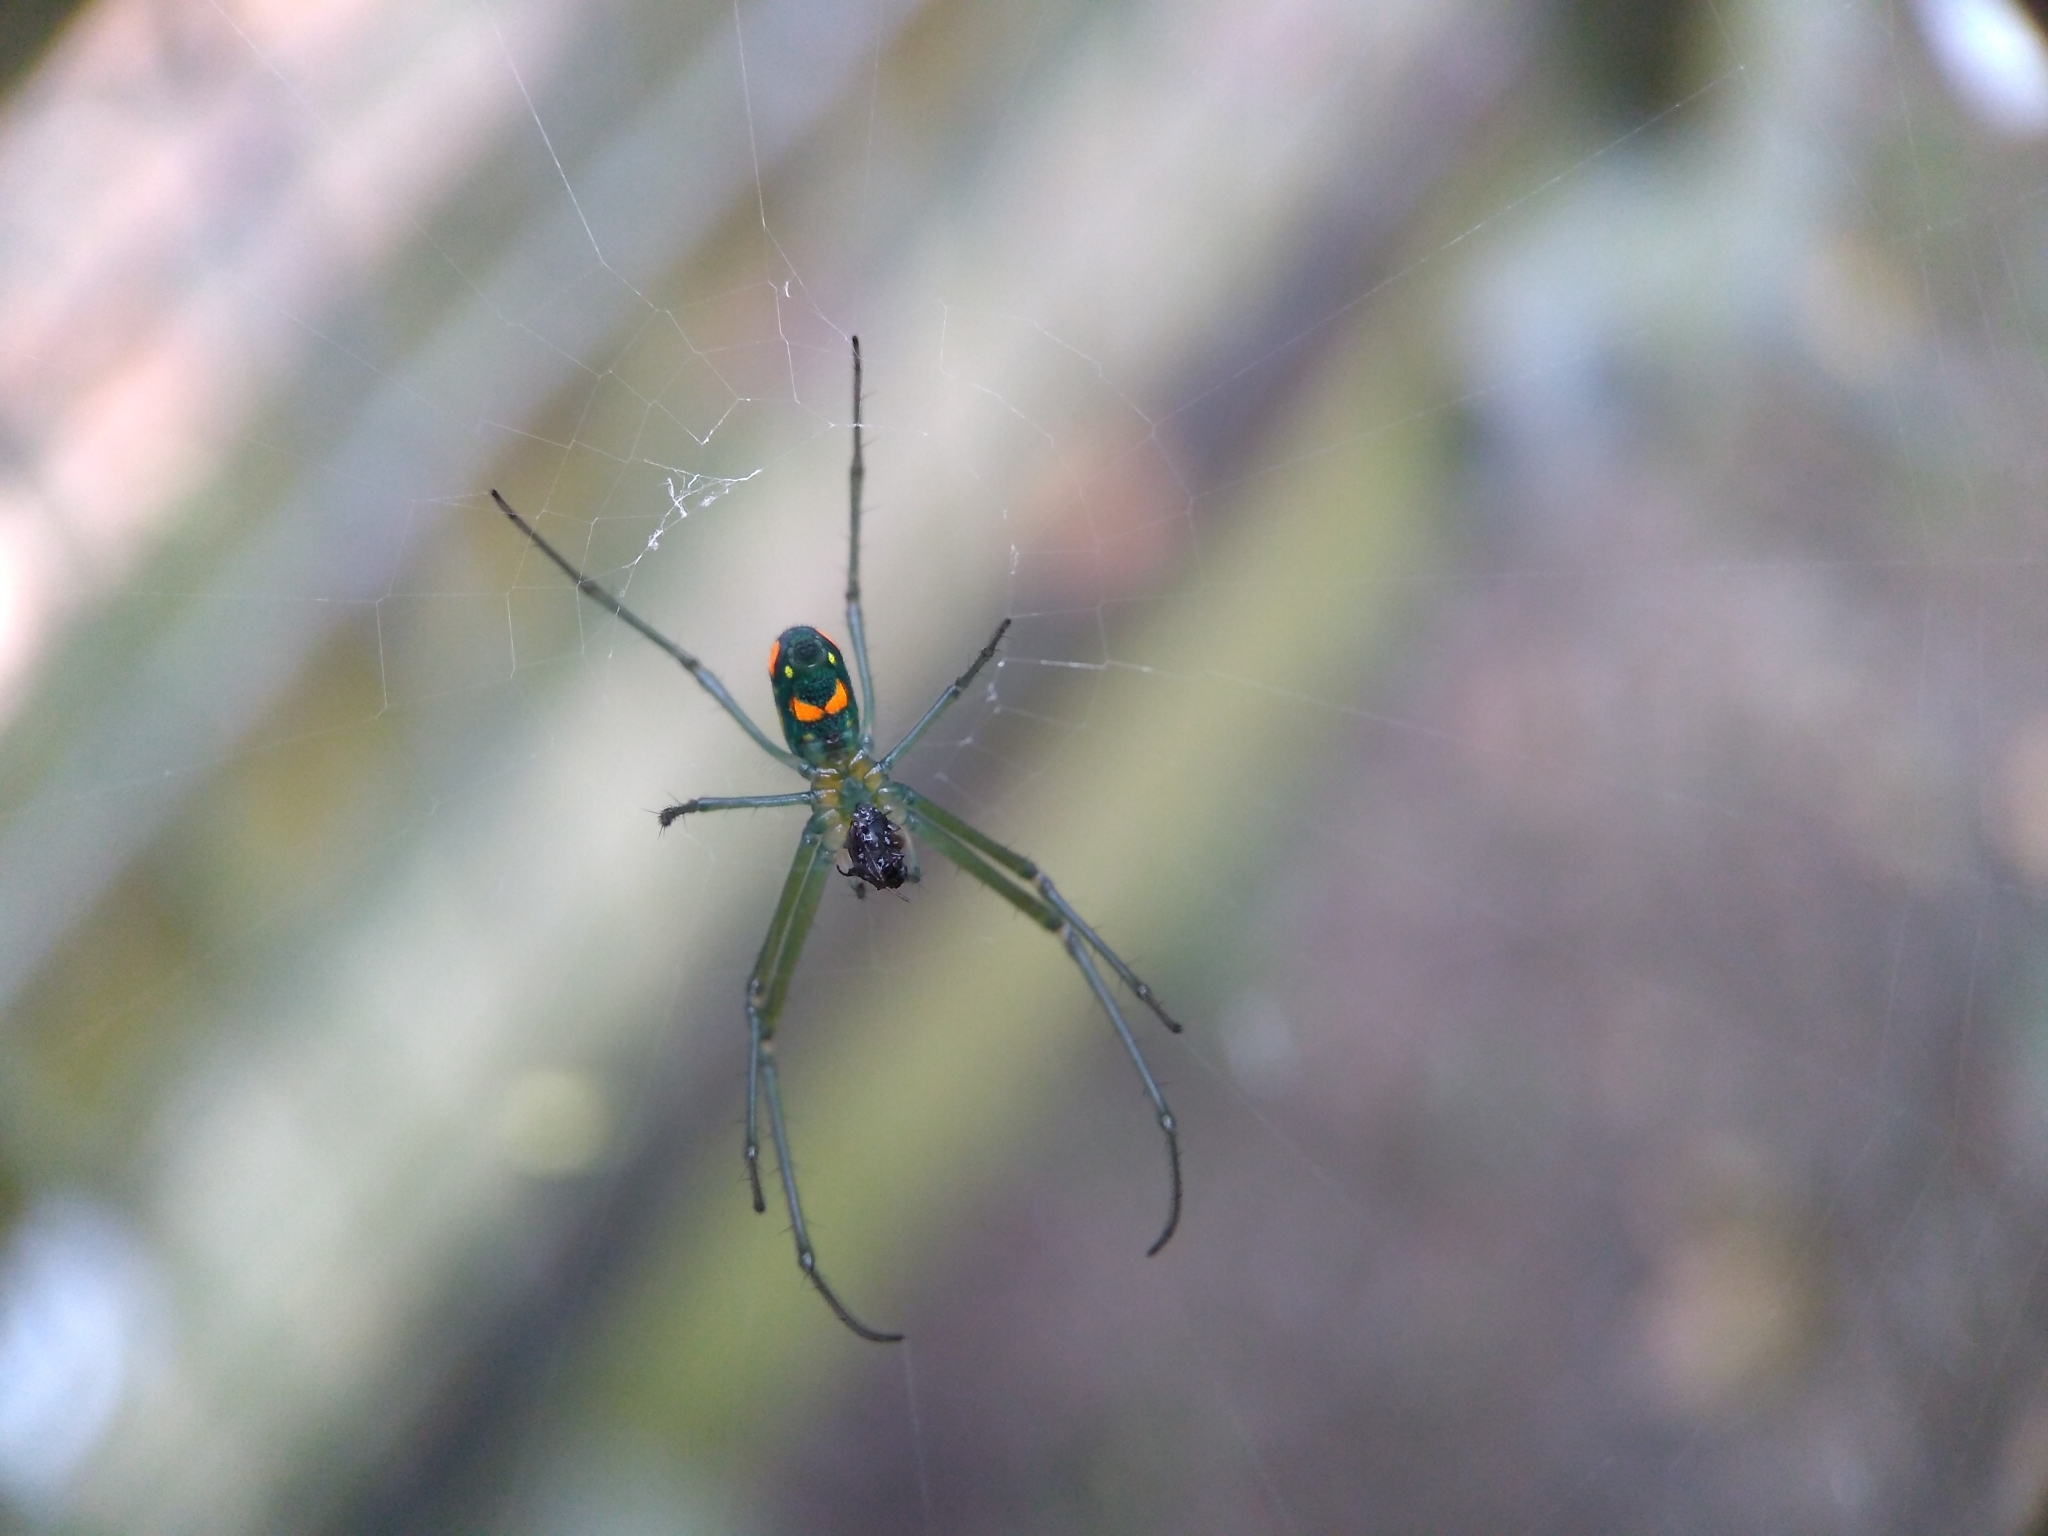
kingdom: Animalia
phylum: Arthropoda
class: Arachnida
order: Araneae
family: Tetragnathidae
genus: Leucauge
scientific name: Leucauge argyrobapta
